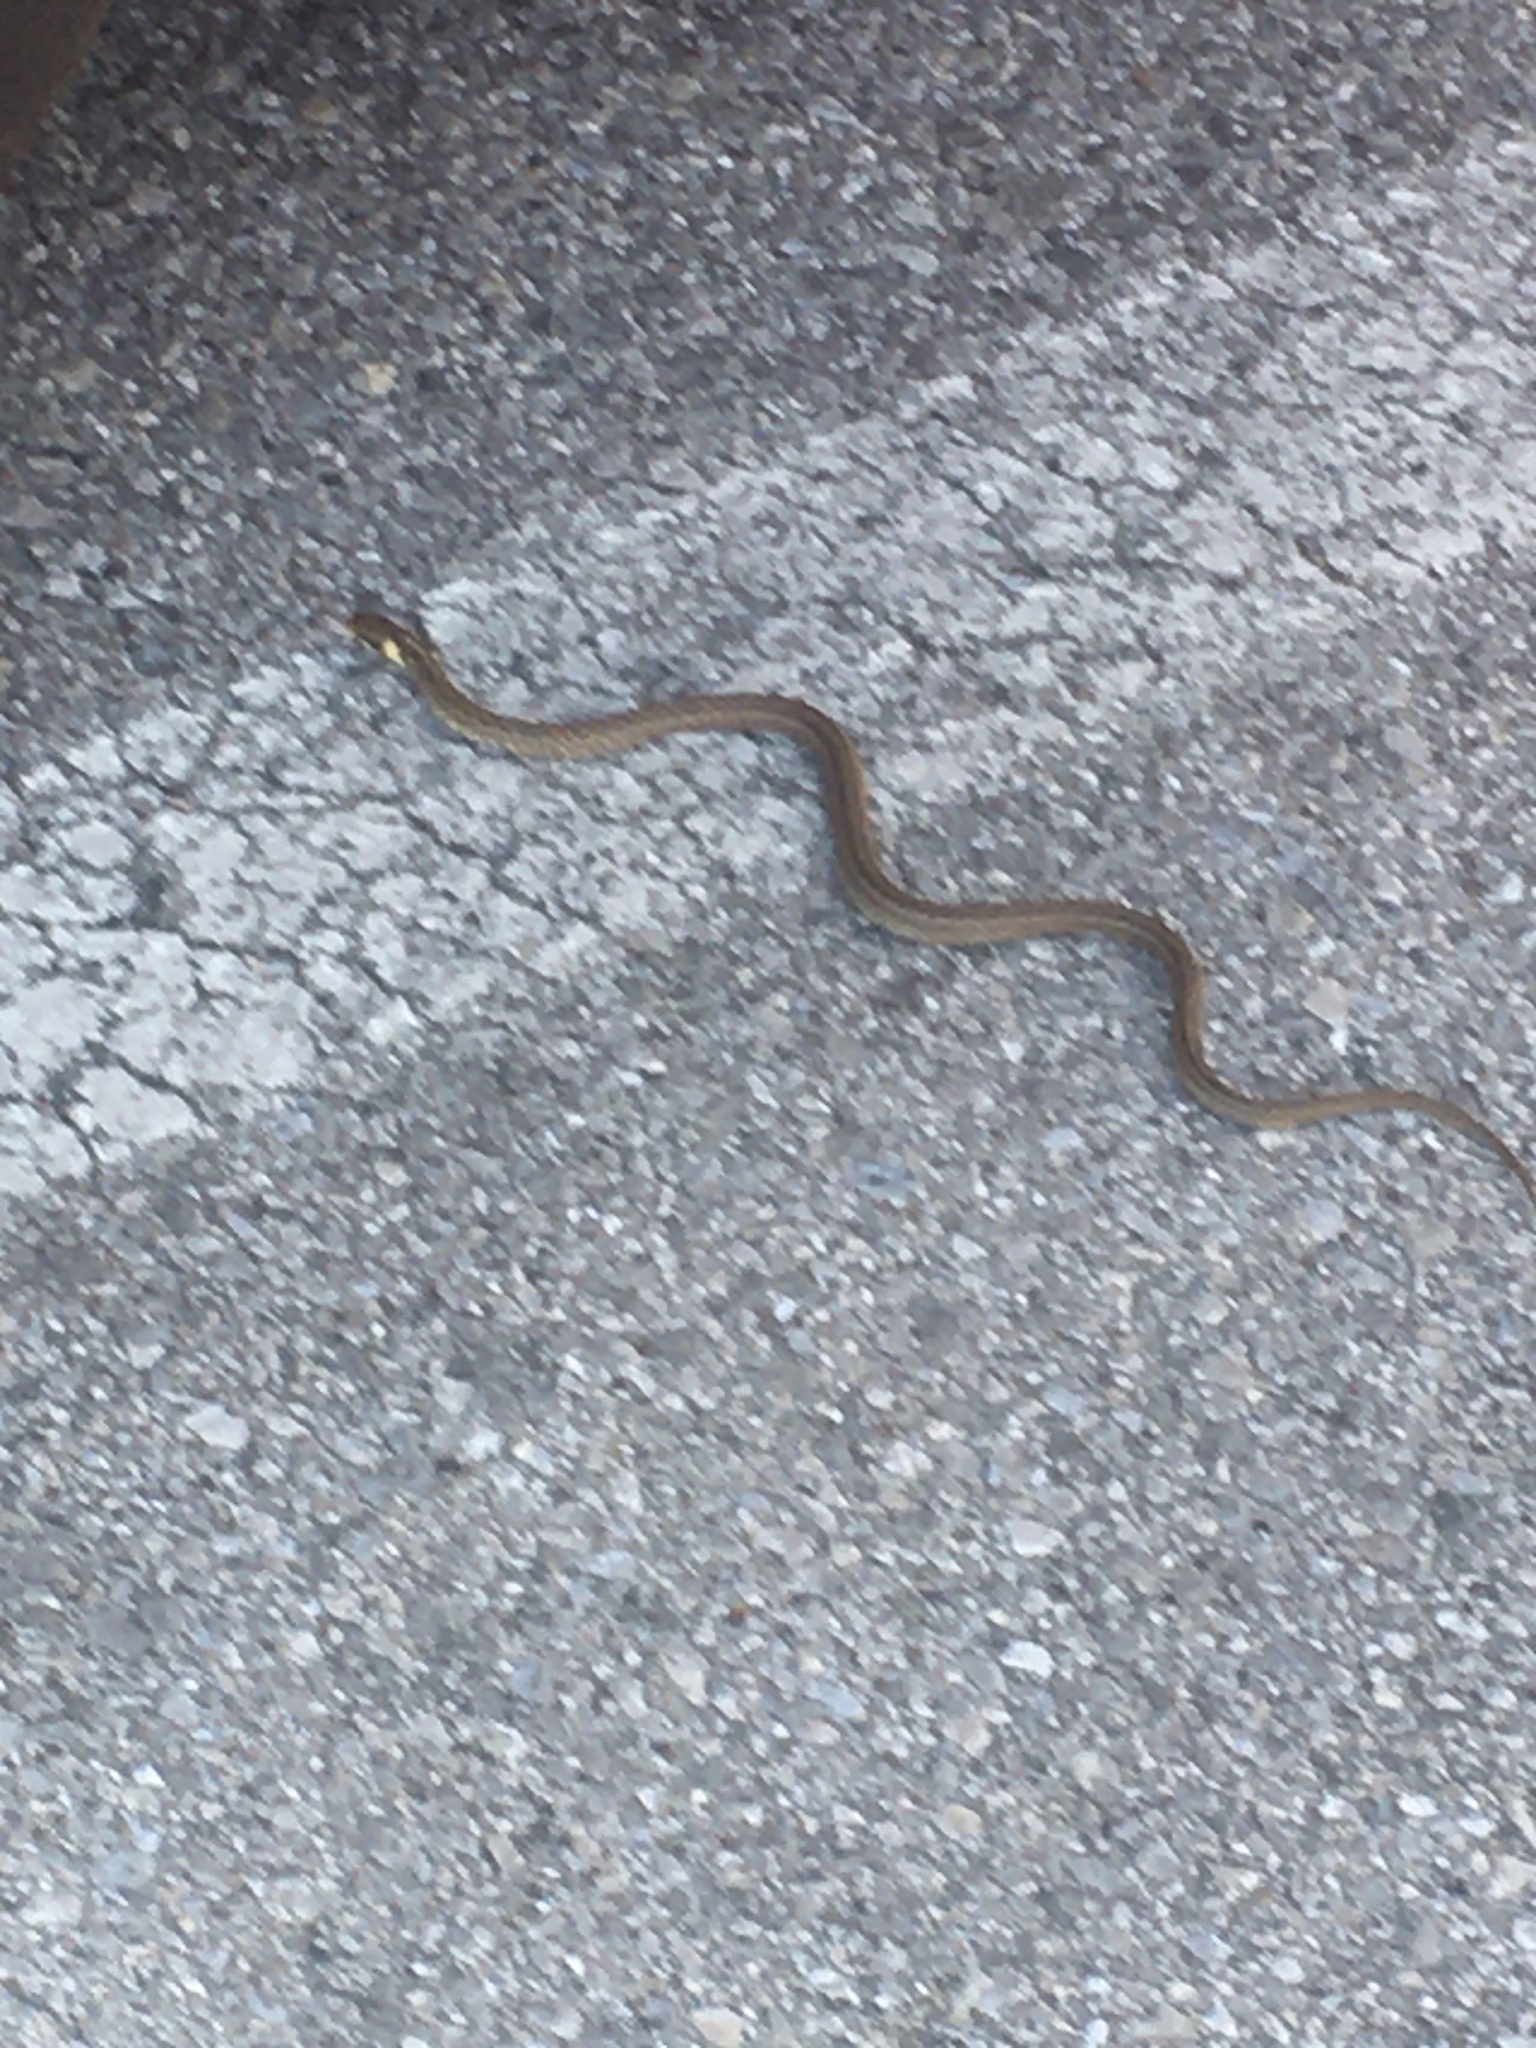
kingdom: Animalia
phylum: Chordata
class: Squamata
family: Colubridae
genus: Zamenis
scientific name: Zamenis longissimus
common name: Aesculapean snake
